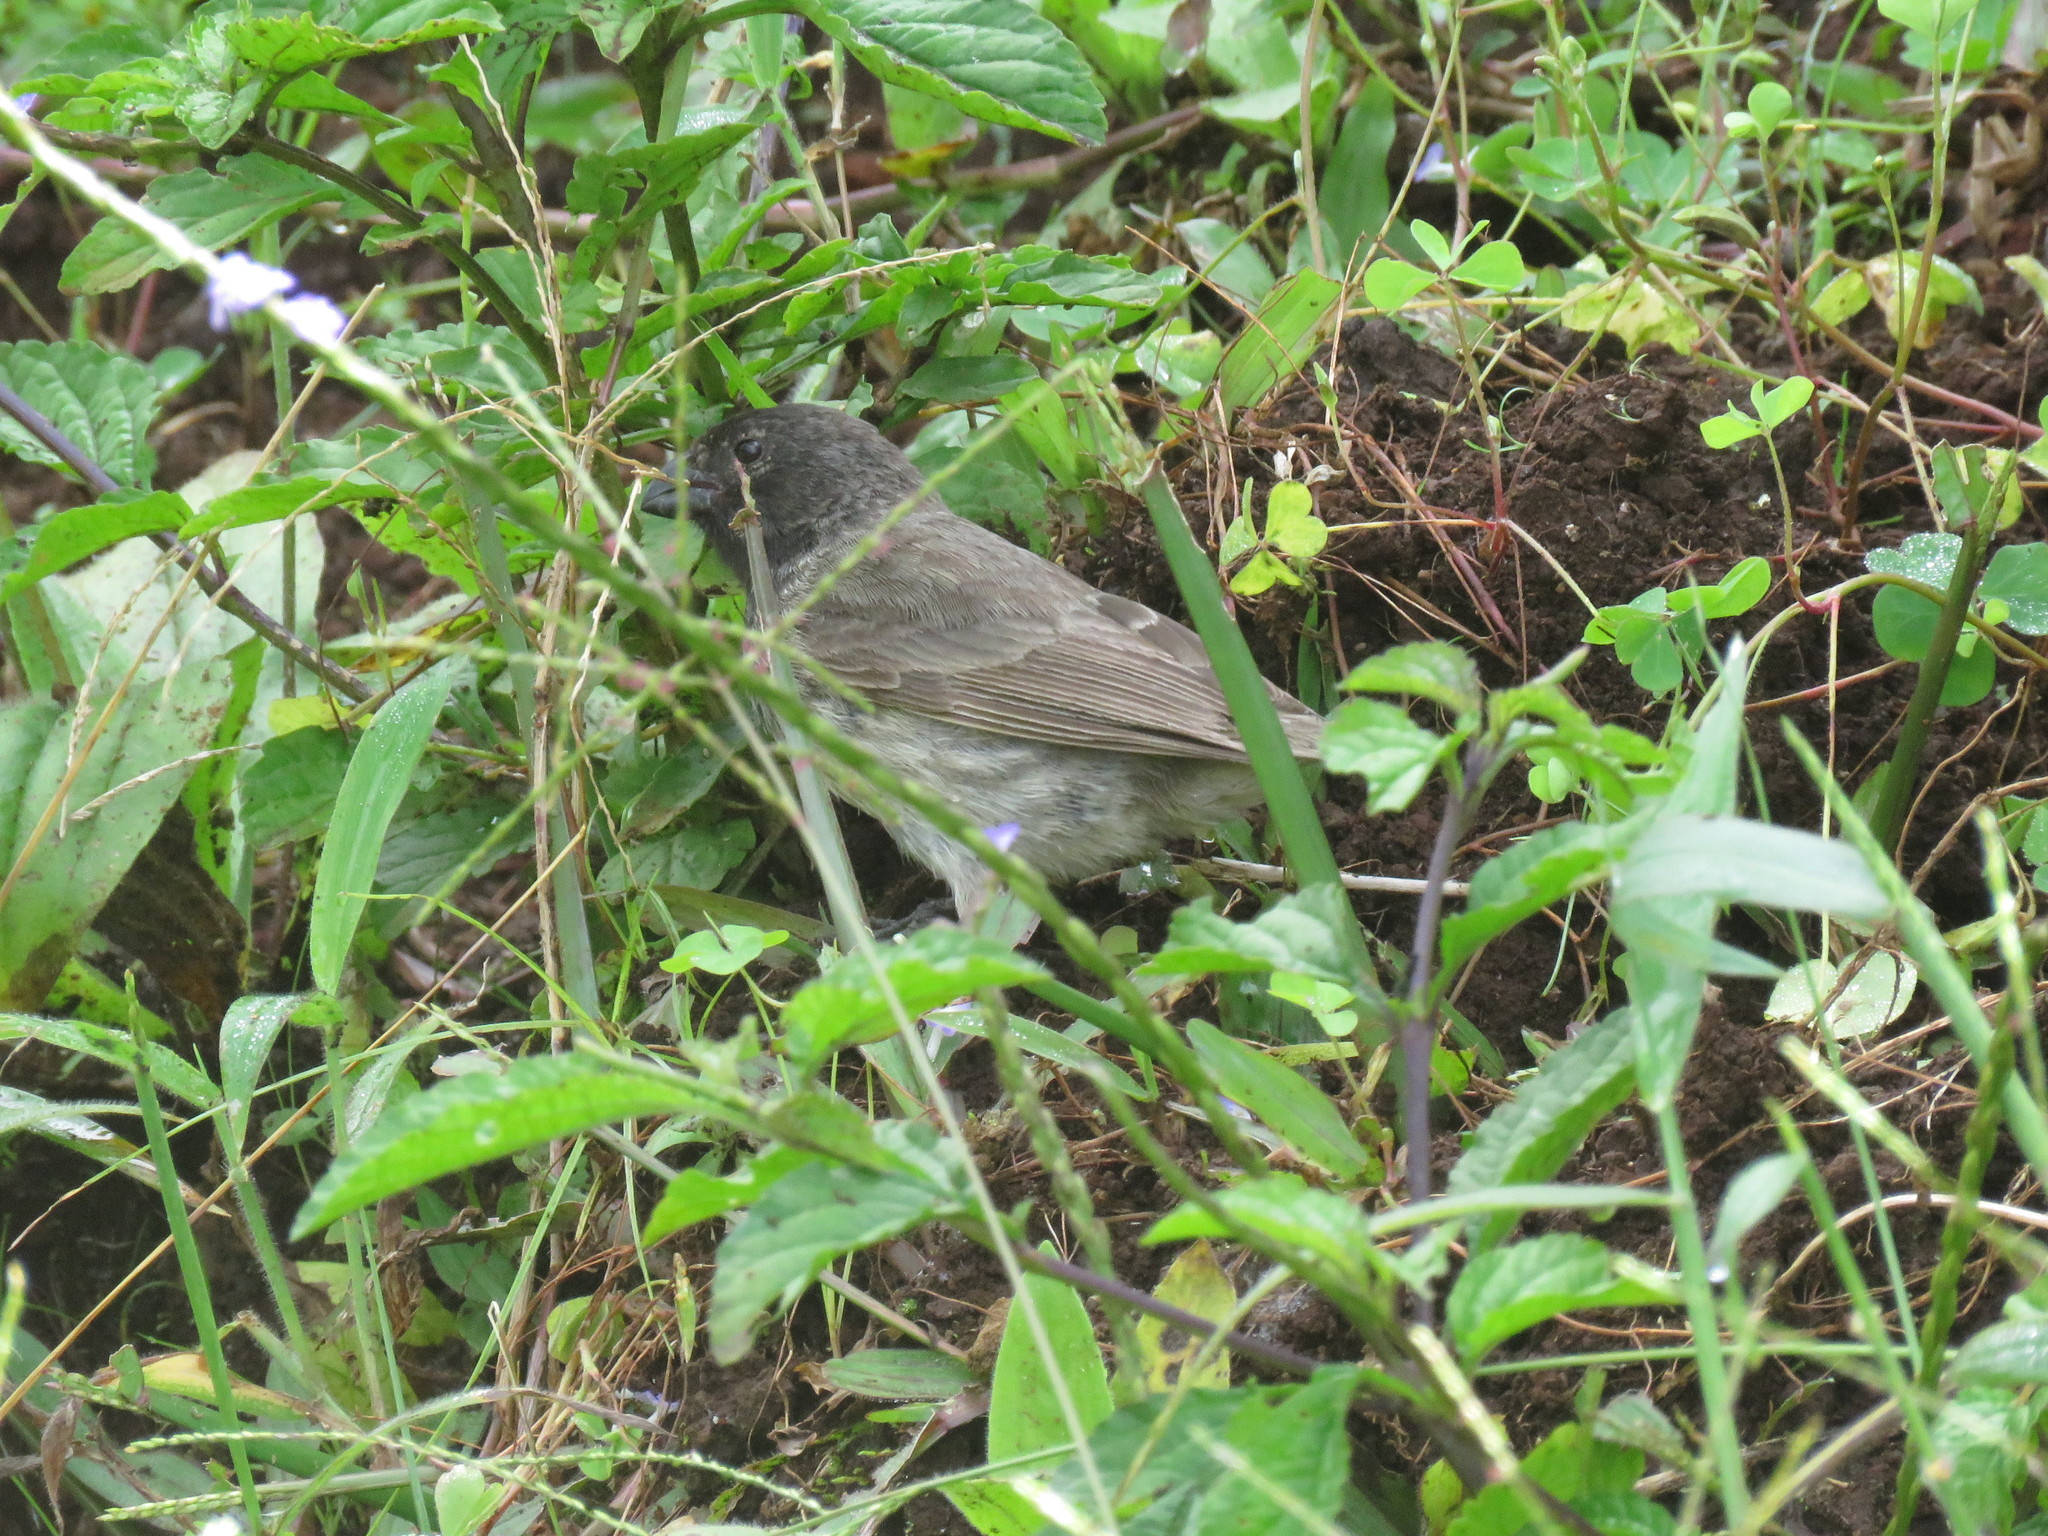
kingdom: Animalia
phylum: Chordata
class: Aves
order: Passeriformes
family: Thraupidae
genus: Camarhynchus
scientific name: Camarhynchus parvulus
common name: Small tree finch
